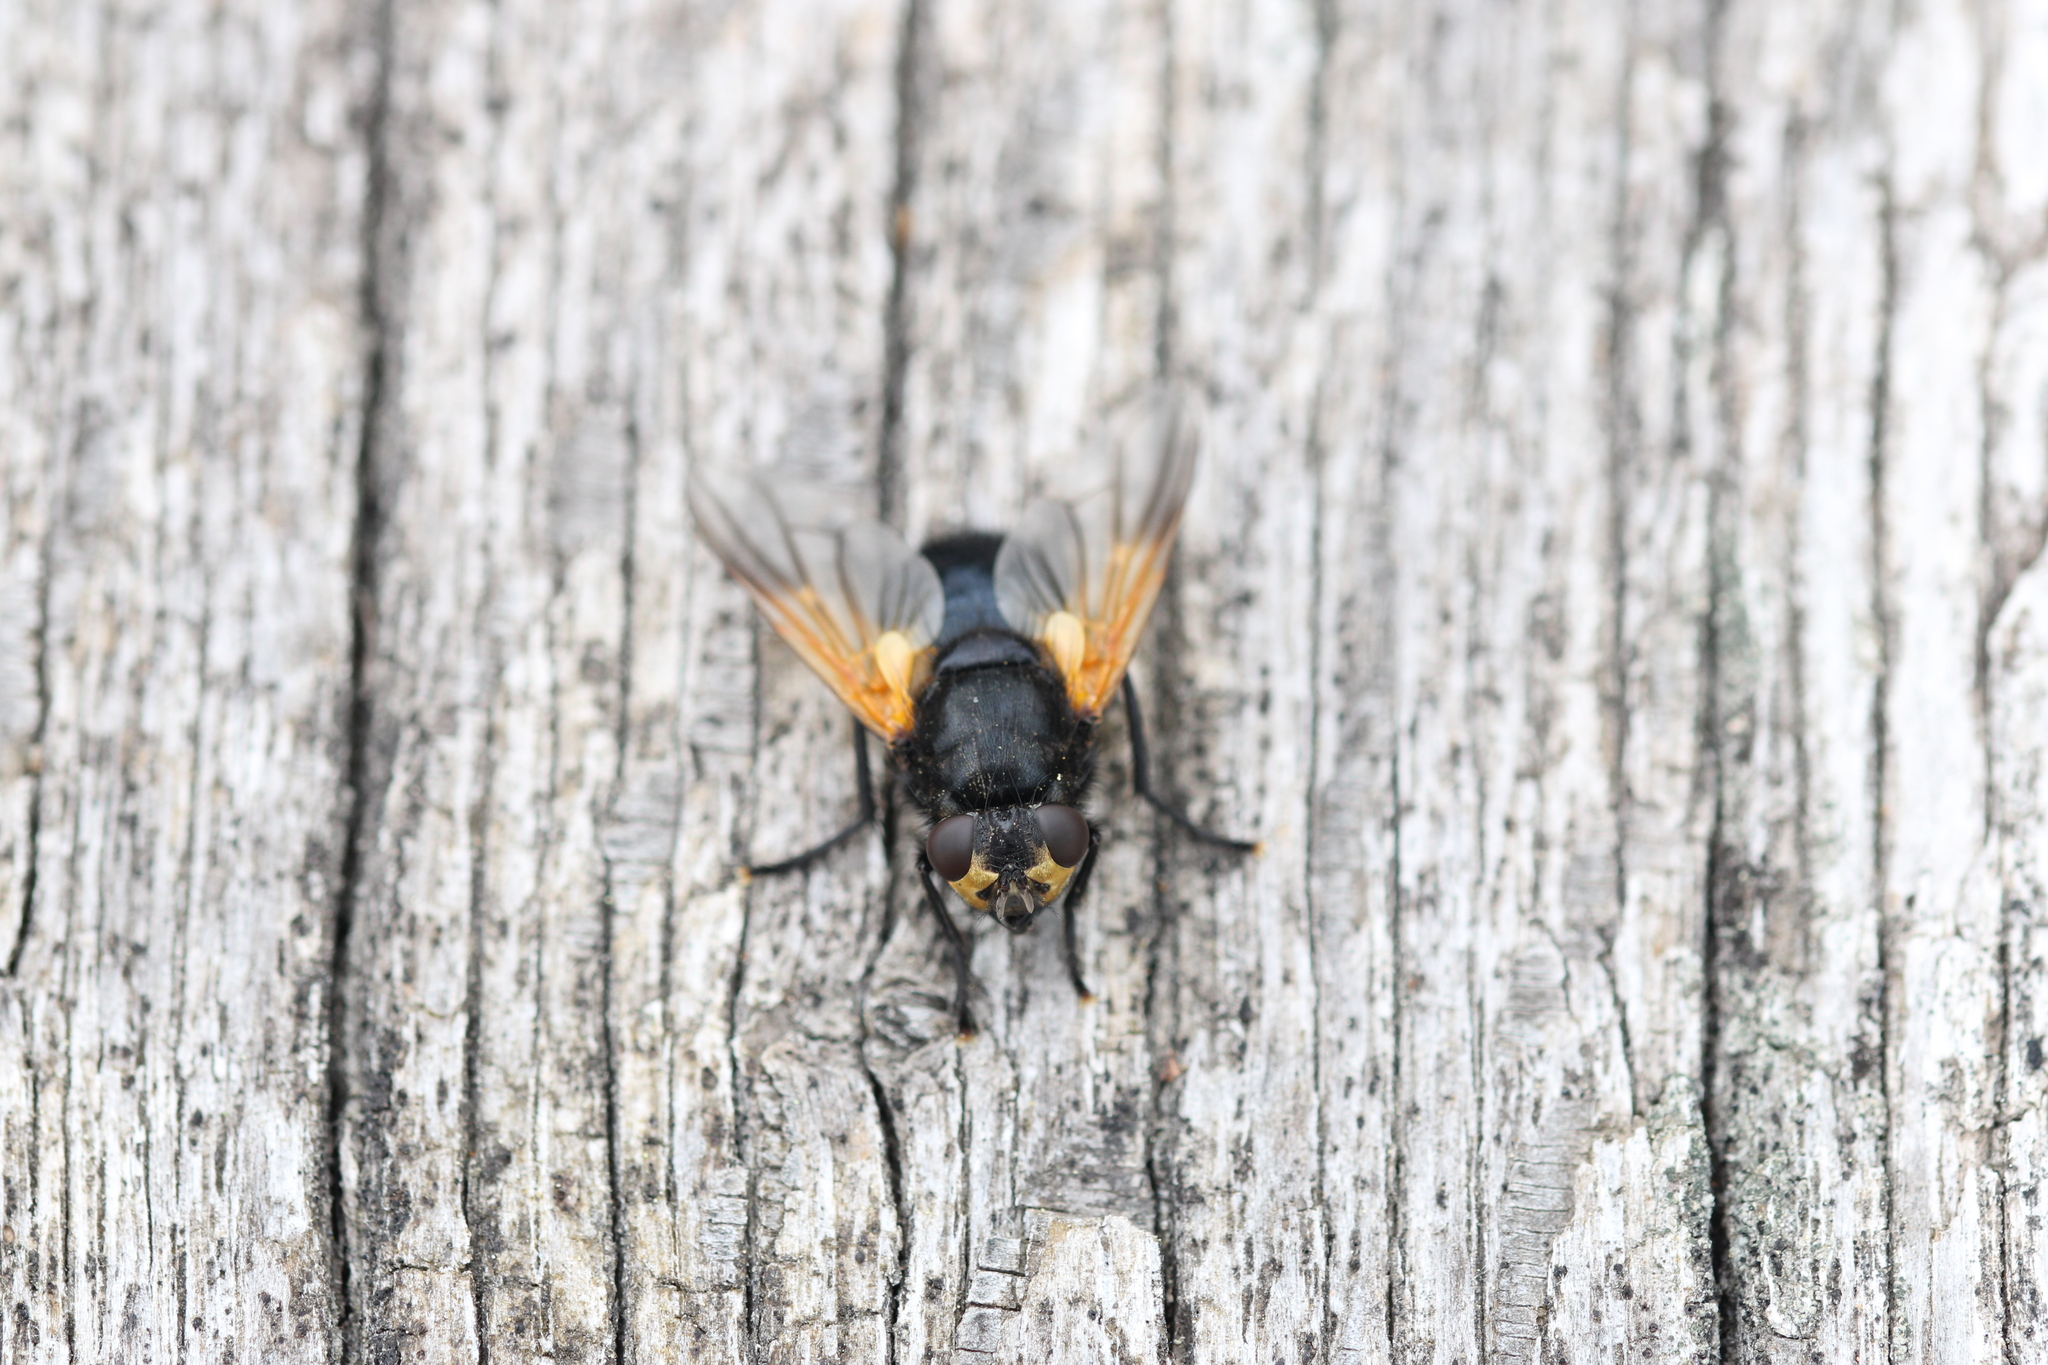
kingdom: Animalia
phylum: Arthropoda
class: Insecta
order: Diptera
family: Muscidae
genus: Mesembrina
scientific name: Mesembrina meridiana
